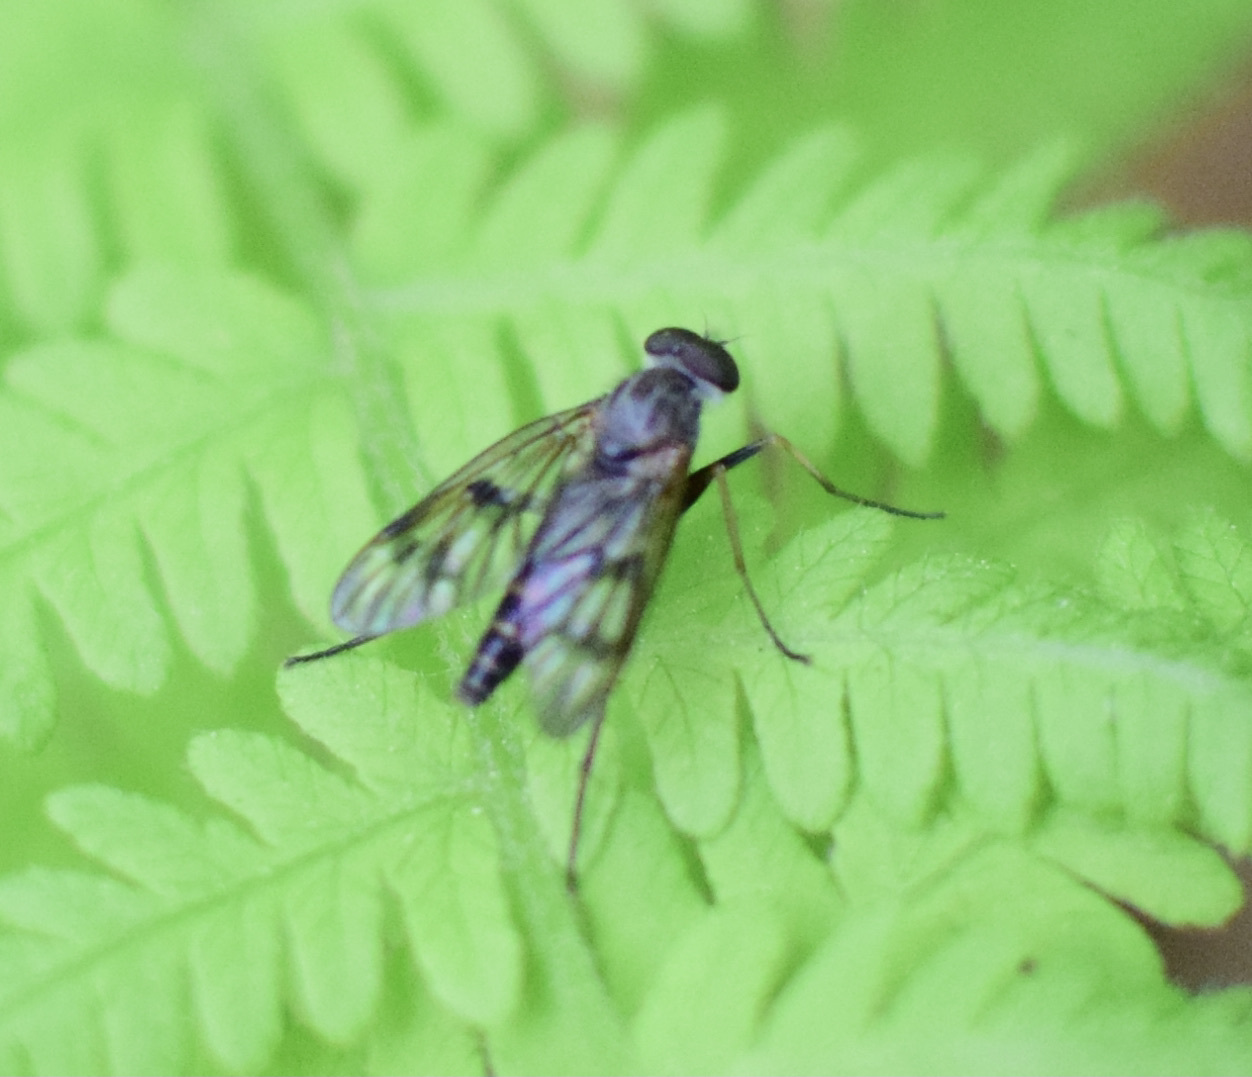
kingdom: Animalia
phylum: Arthropoda
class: Insecta
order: Diptera
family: Rhagionidae
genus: Rhagio
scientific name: Rhagio mystaceus
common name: Common snipe fly
